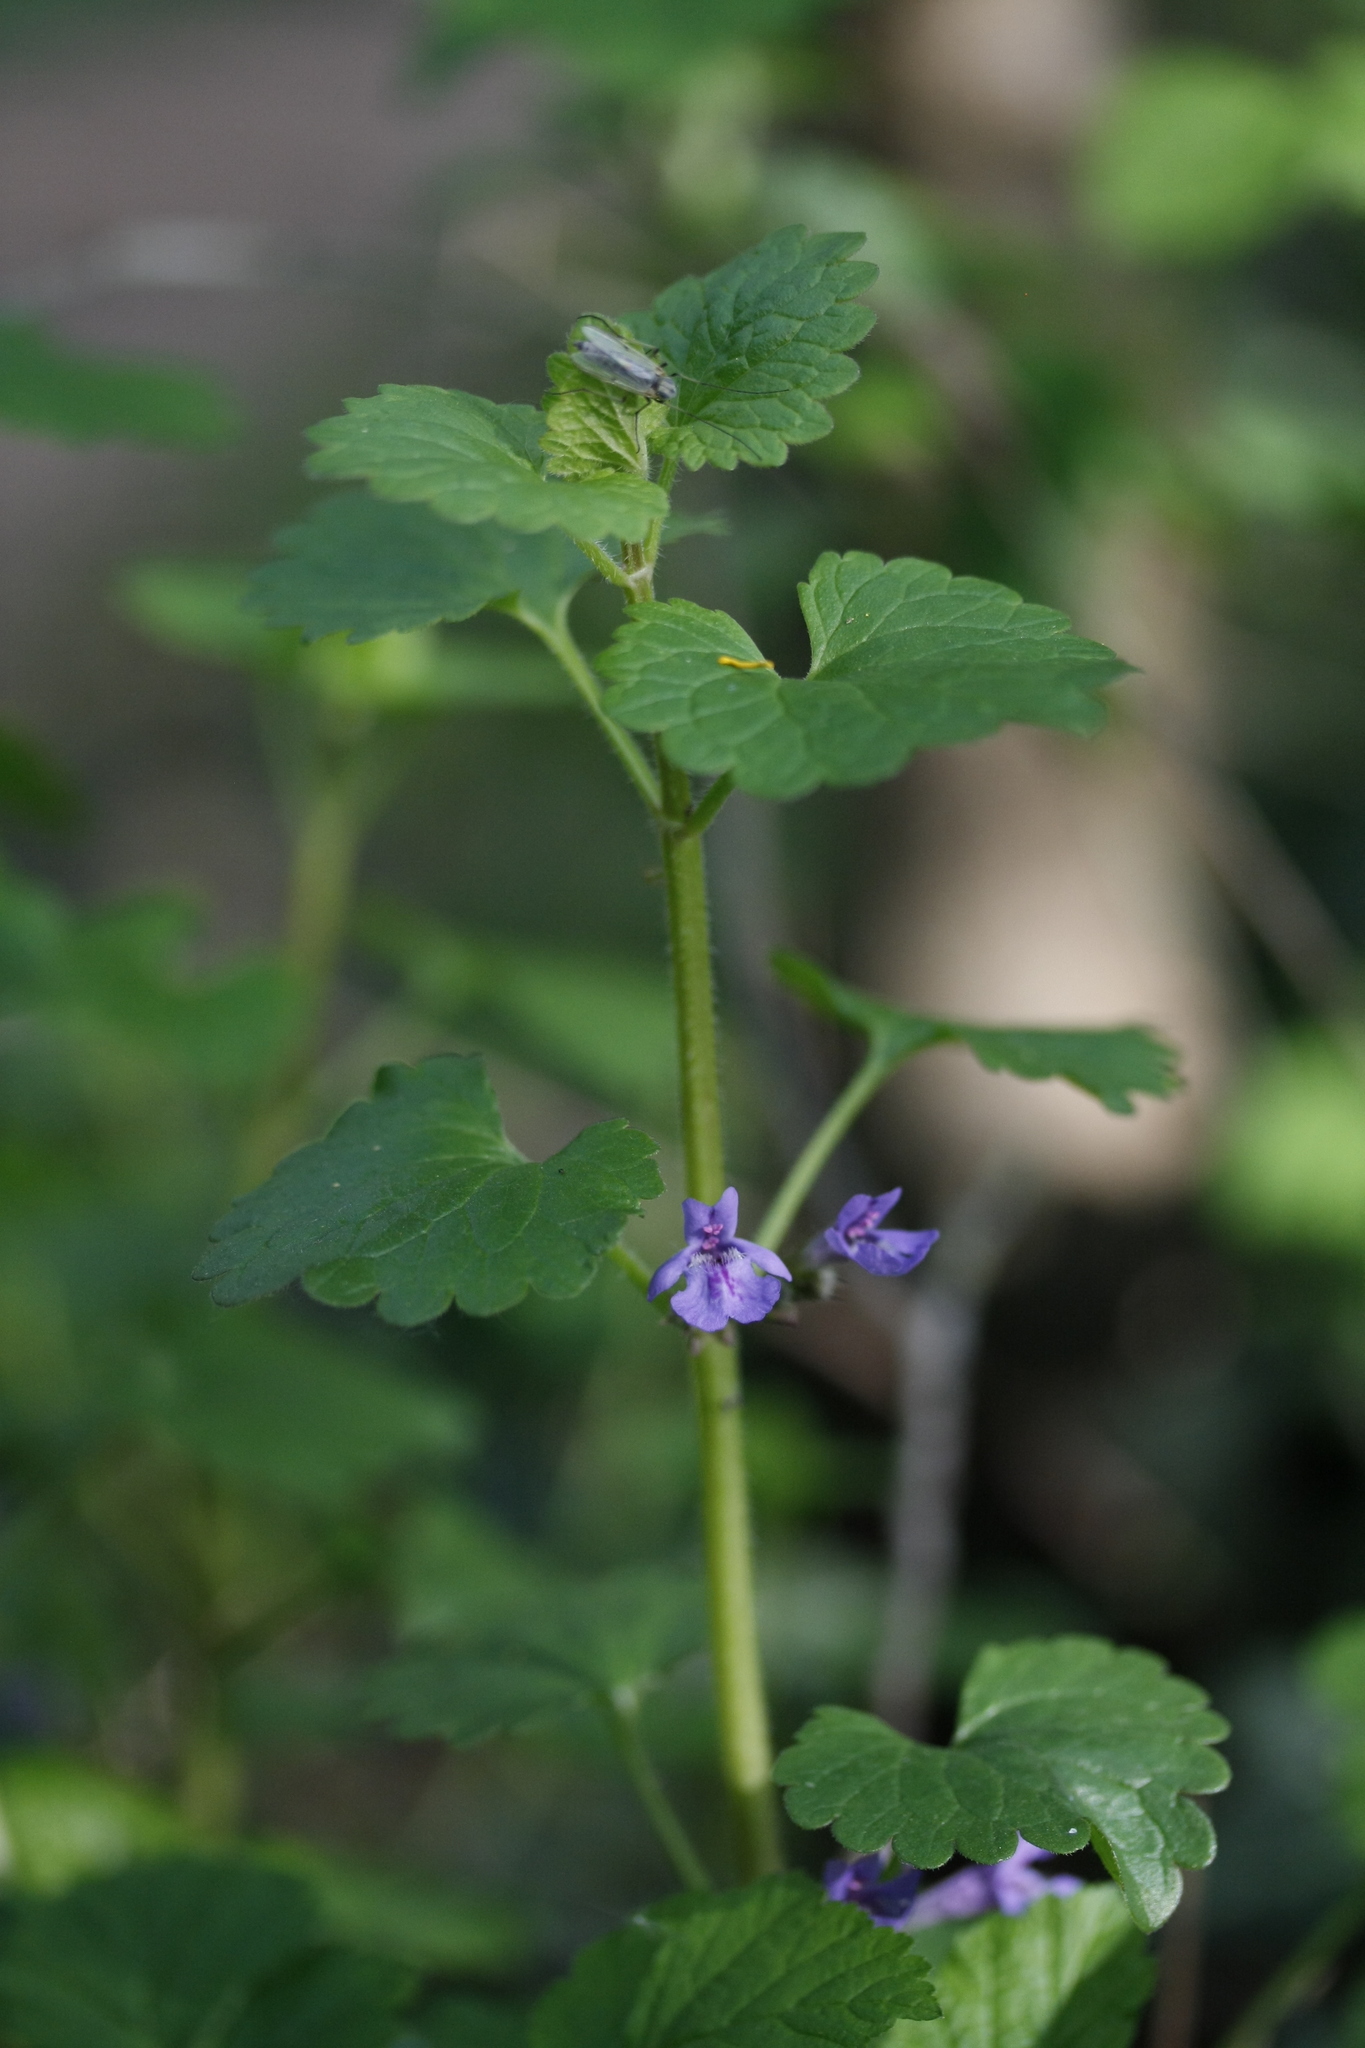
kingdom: Plantae
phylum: Tracheophyta
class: Magnoliopsida
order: Lamiales
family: Lamiaceae
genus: Glechoma
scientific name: Glechoma hederacea
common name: Ground ivy
